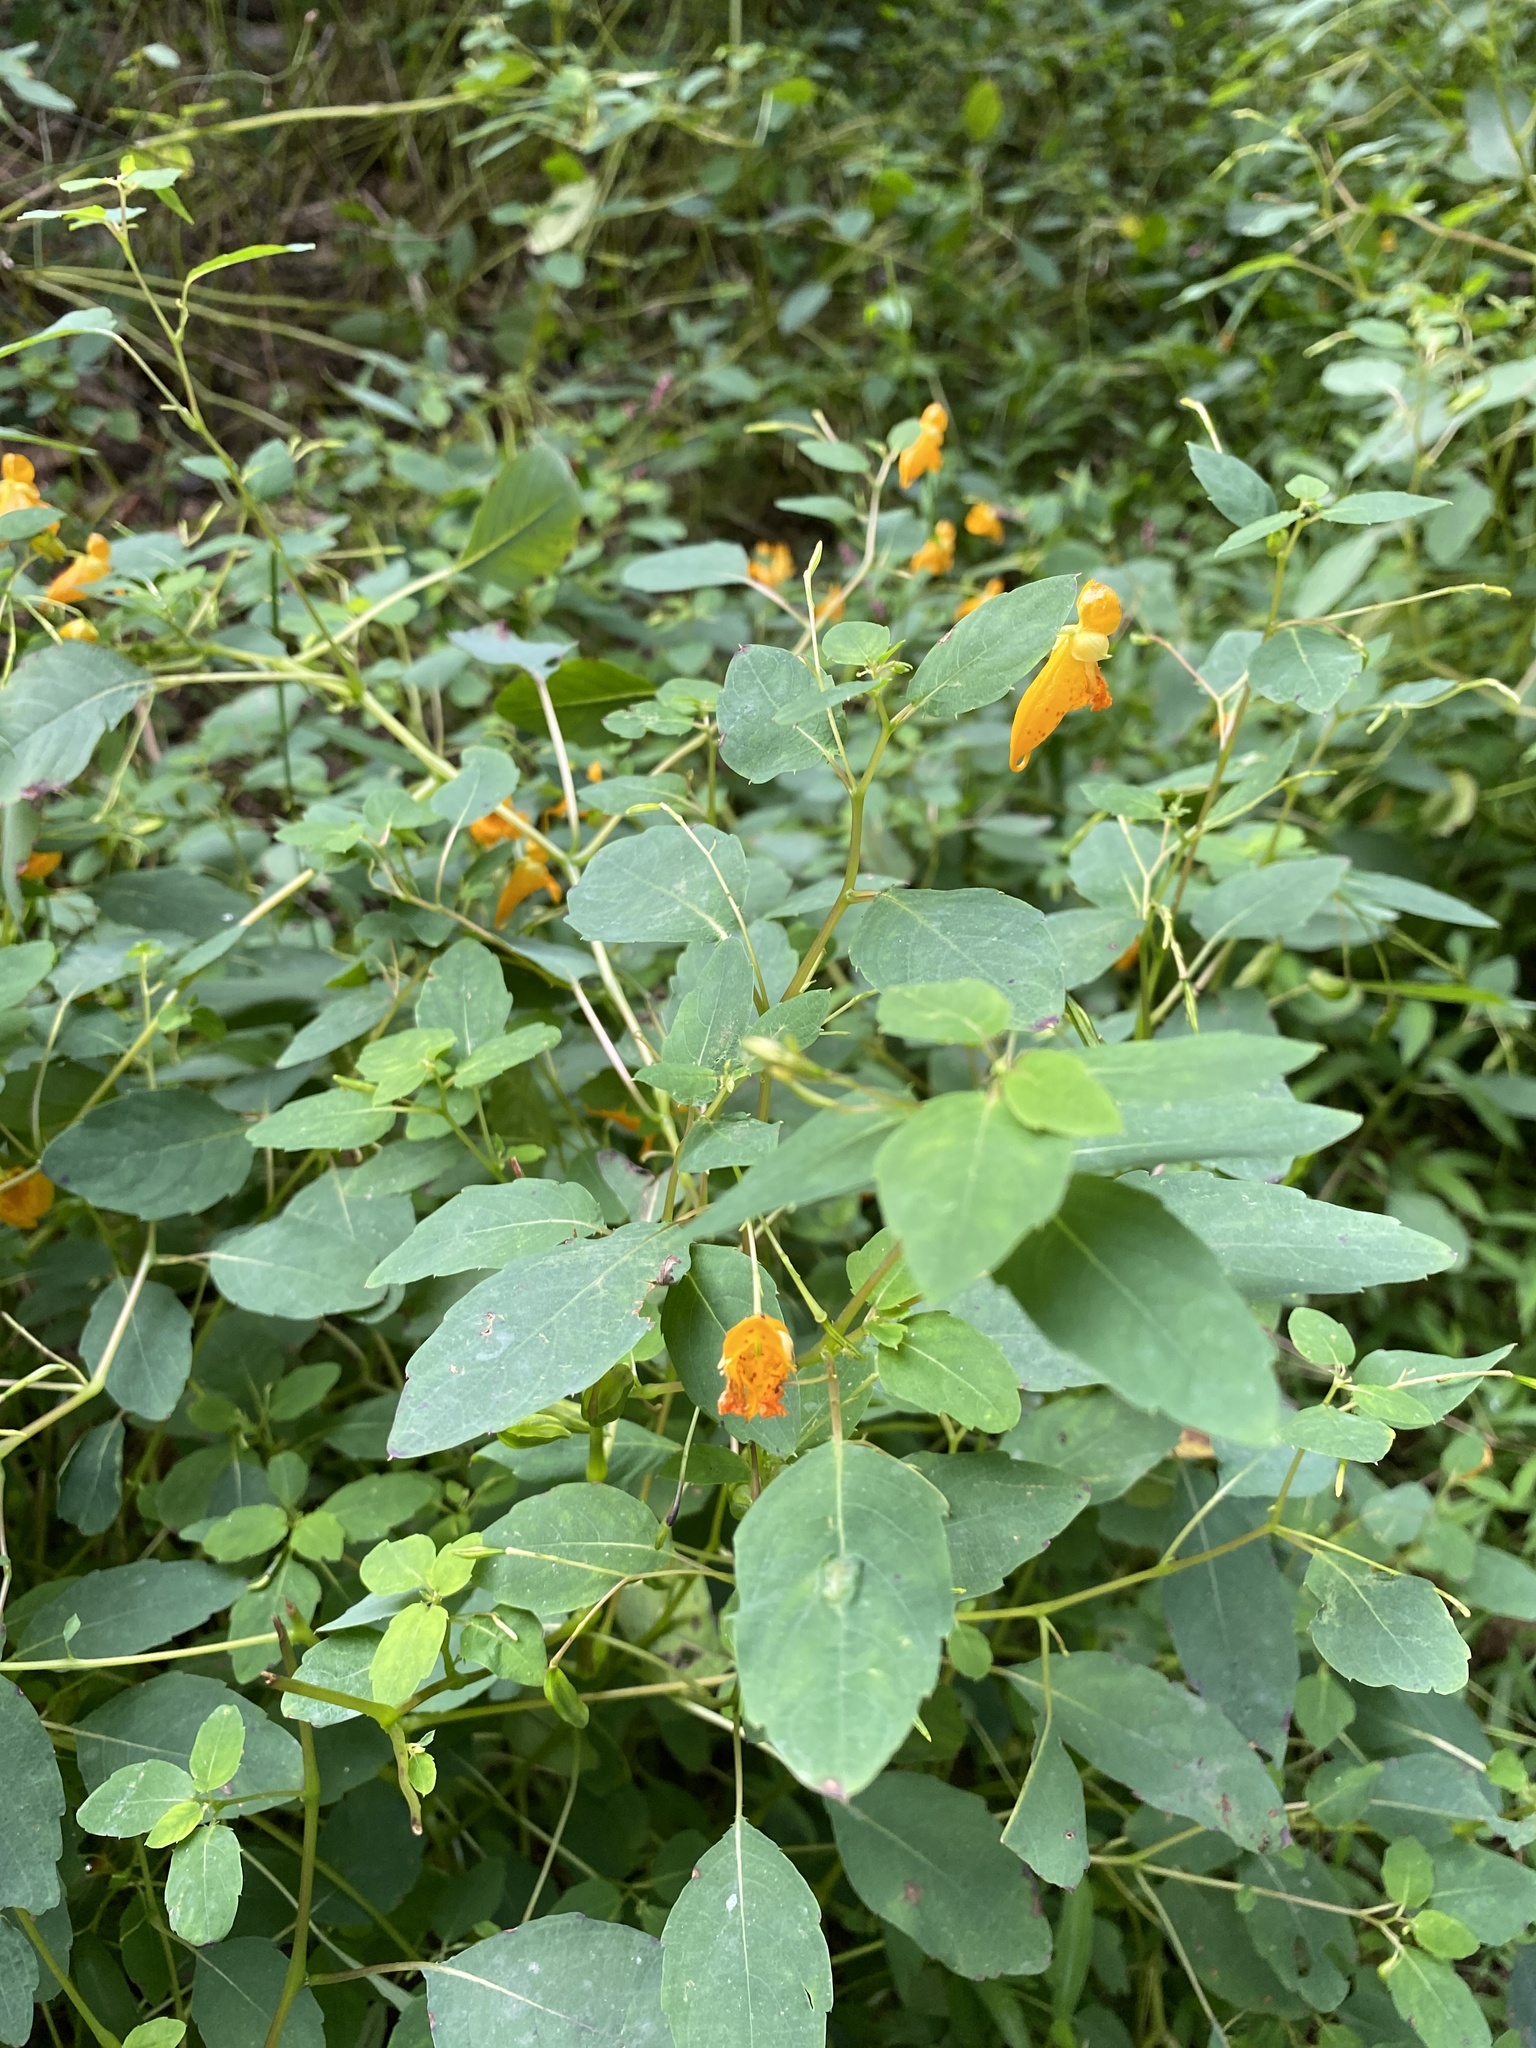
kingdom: Plantae
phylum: Tracheophyta
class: Magnoliopsida
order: Ericales
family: Balsaminaceae
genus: Impatiens
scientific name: Impatiens capensis
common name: Orange balsam
